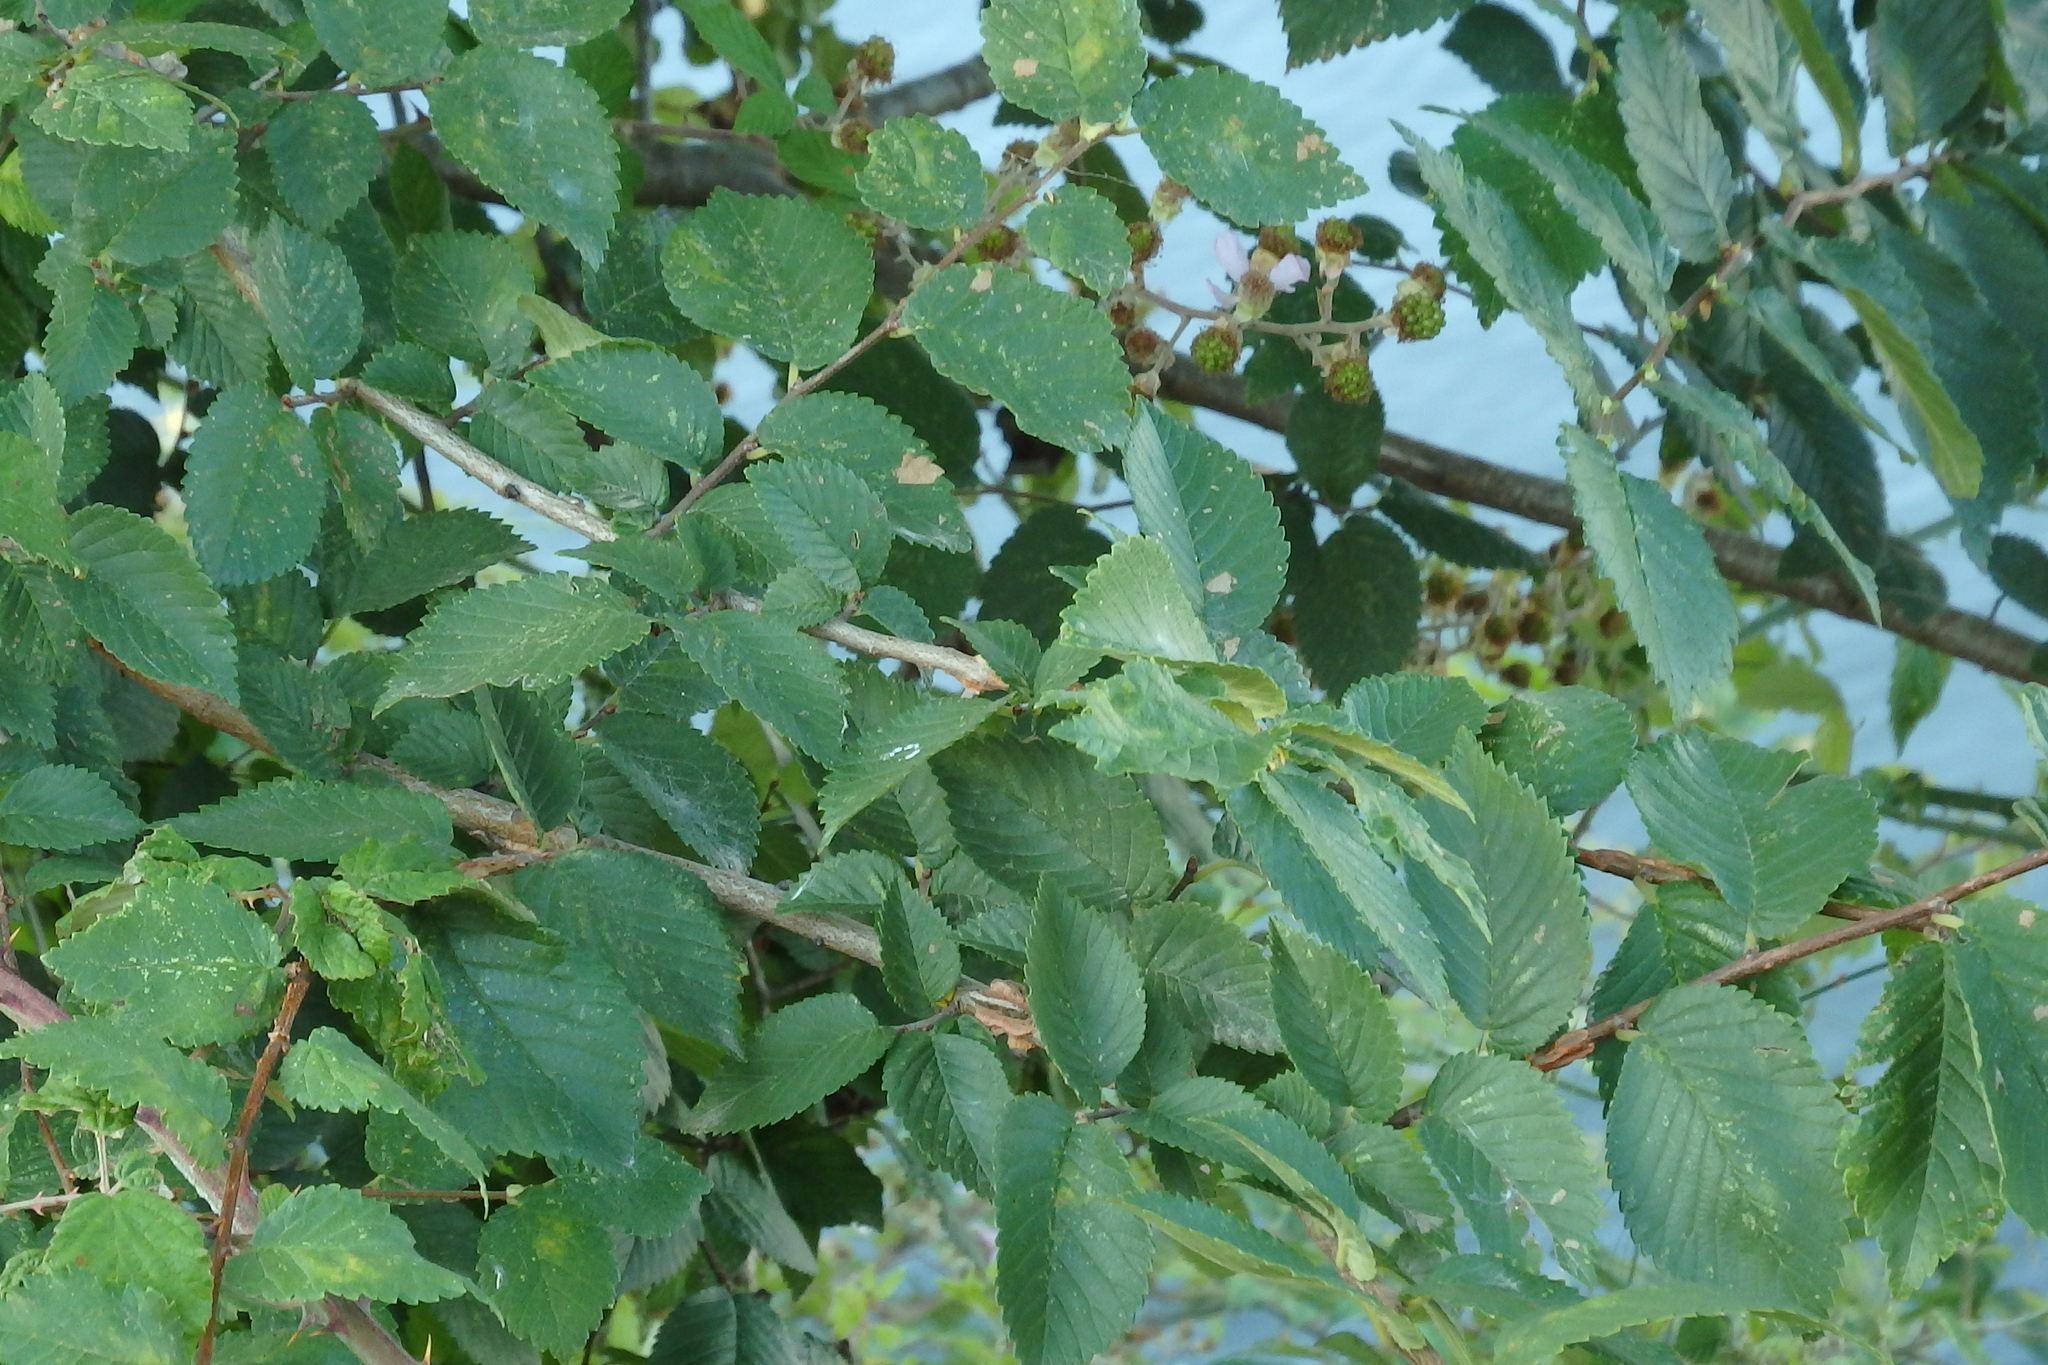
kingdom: Plantae
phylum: Tracheophyta
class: Magnoliopsida
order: Rosales
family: Ulmaceae
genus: Ulmus
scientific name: Ulmus minor
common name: Small-leaved elm
